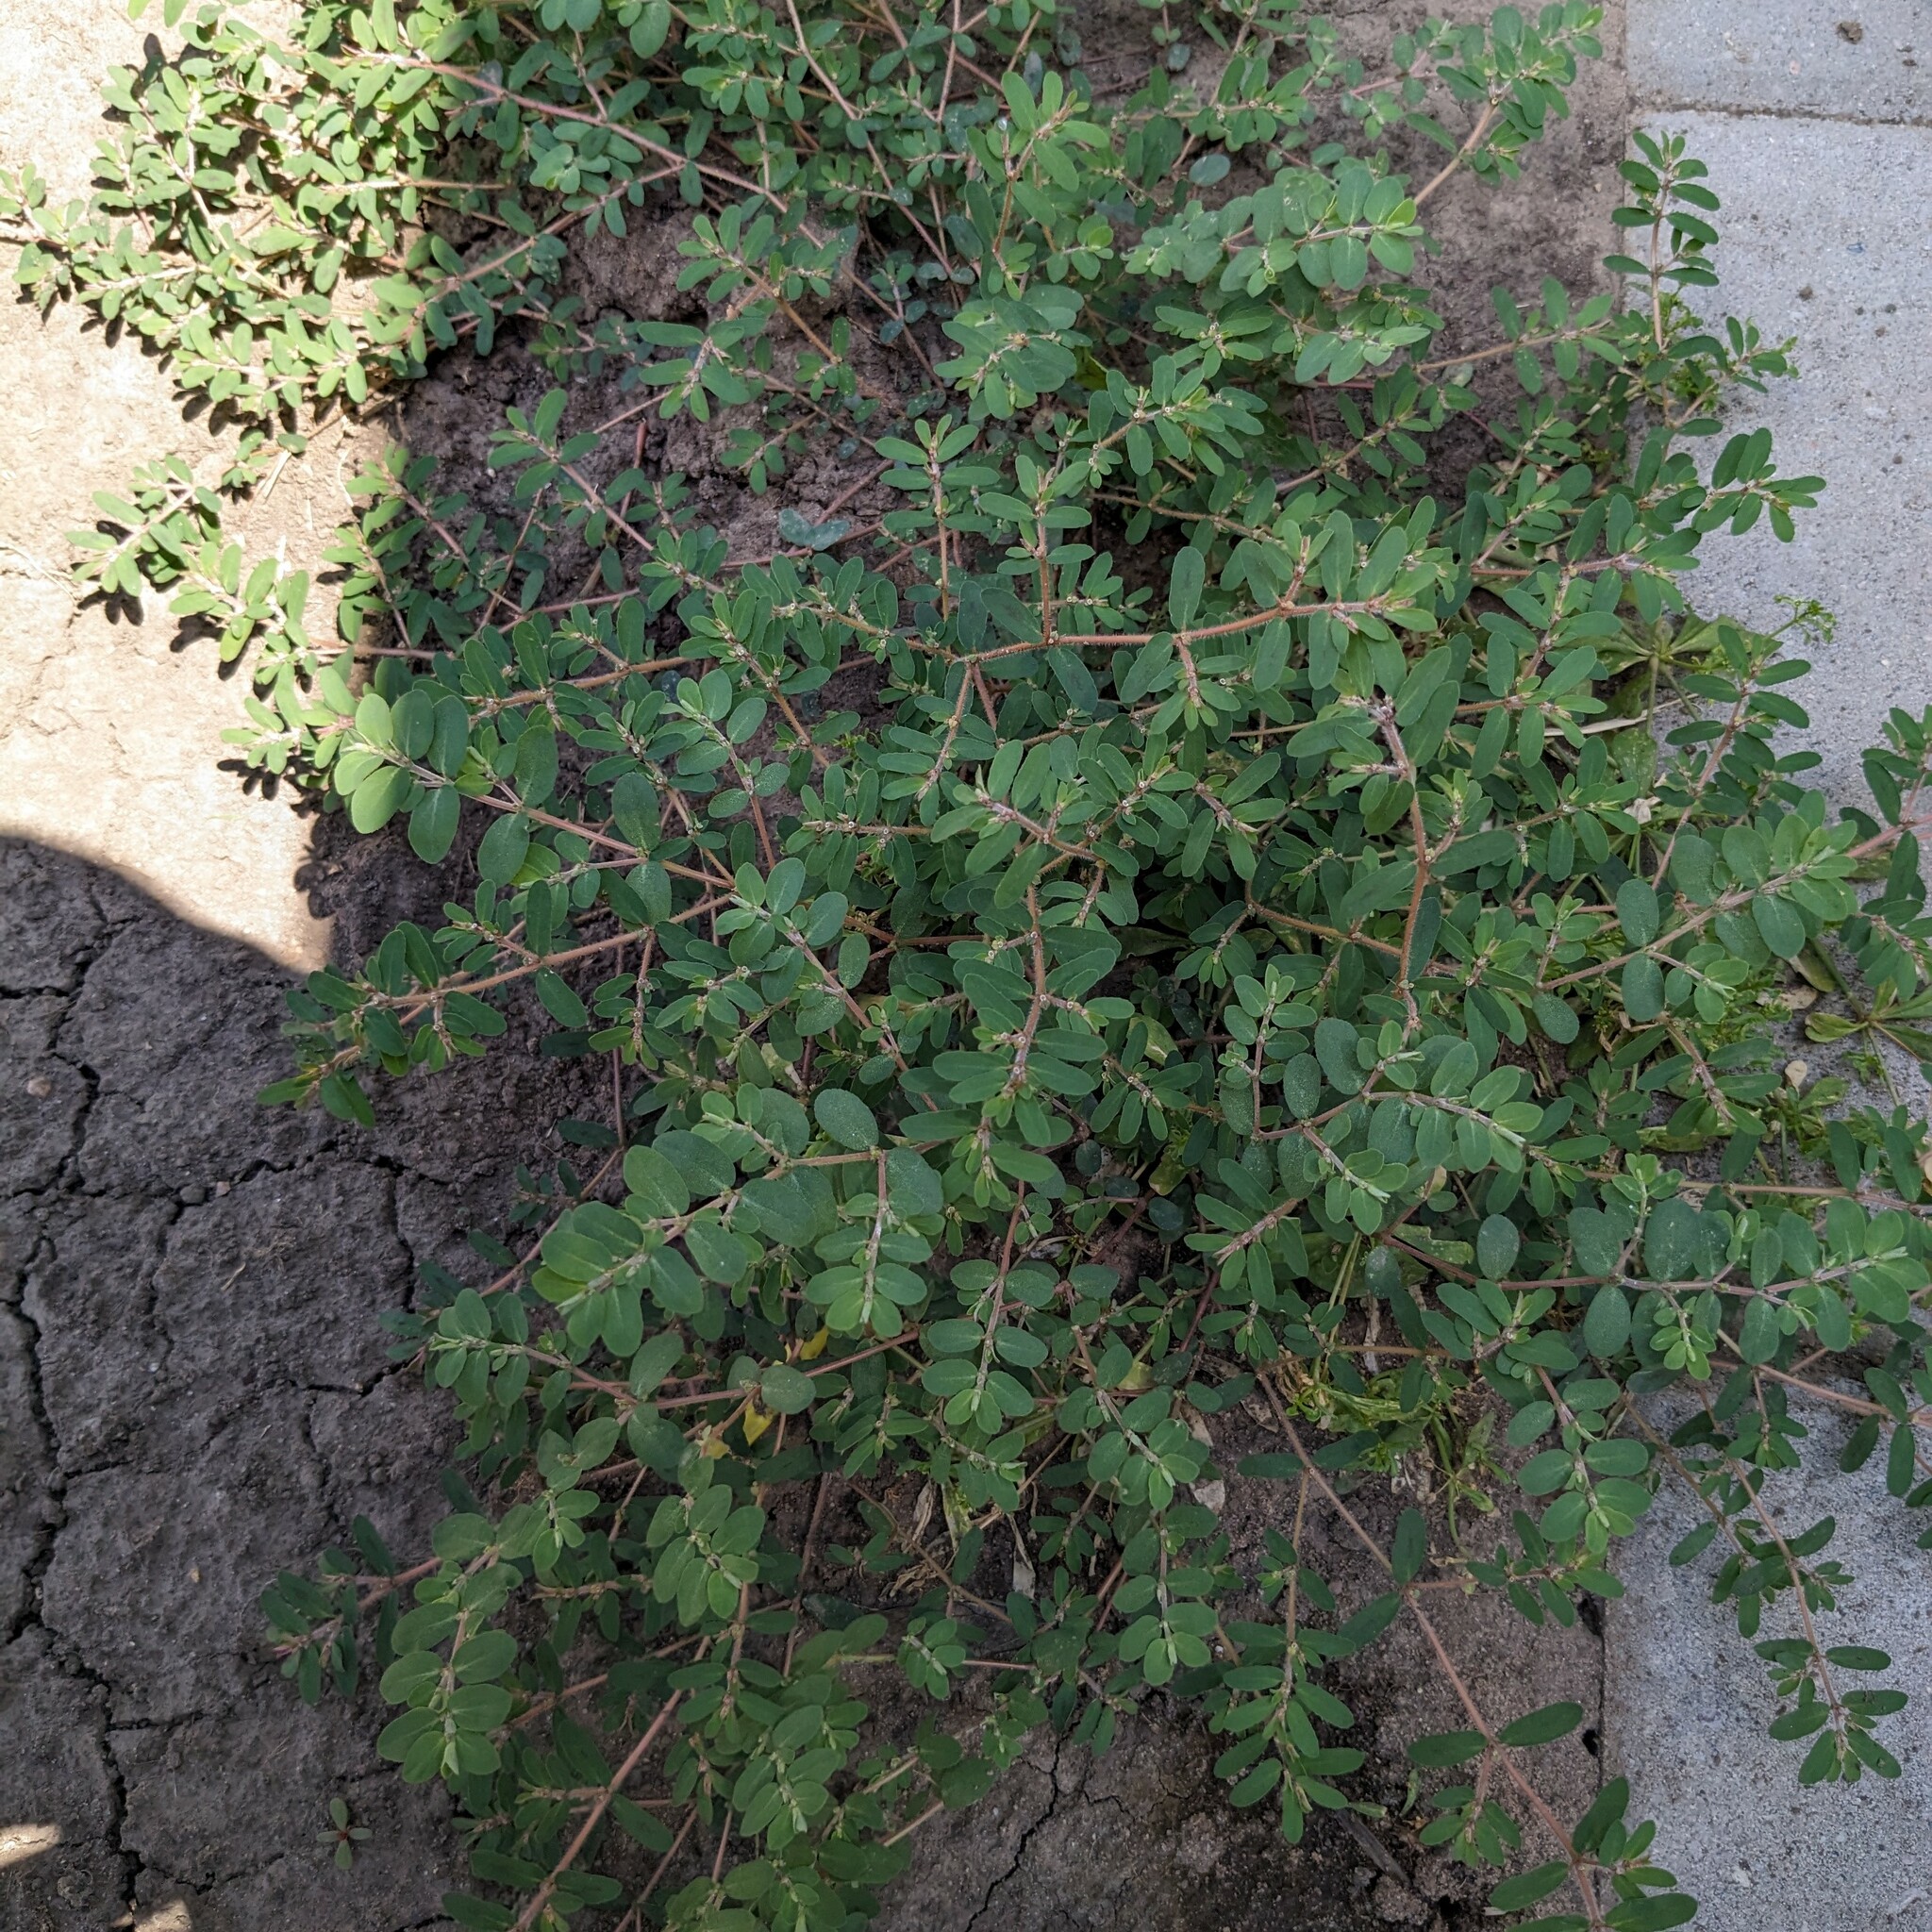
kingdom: Plantae
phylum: Tracheophyta
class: Magnoliopsida
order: Malpighiales
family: Euphorbiaceae
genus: Euphorbia
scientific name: Euphorbia maculata
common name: Spotted spurge
